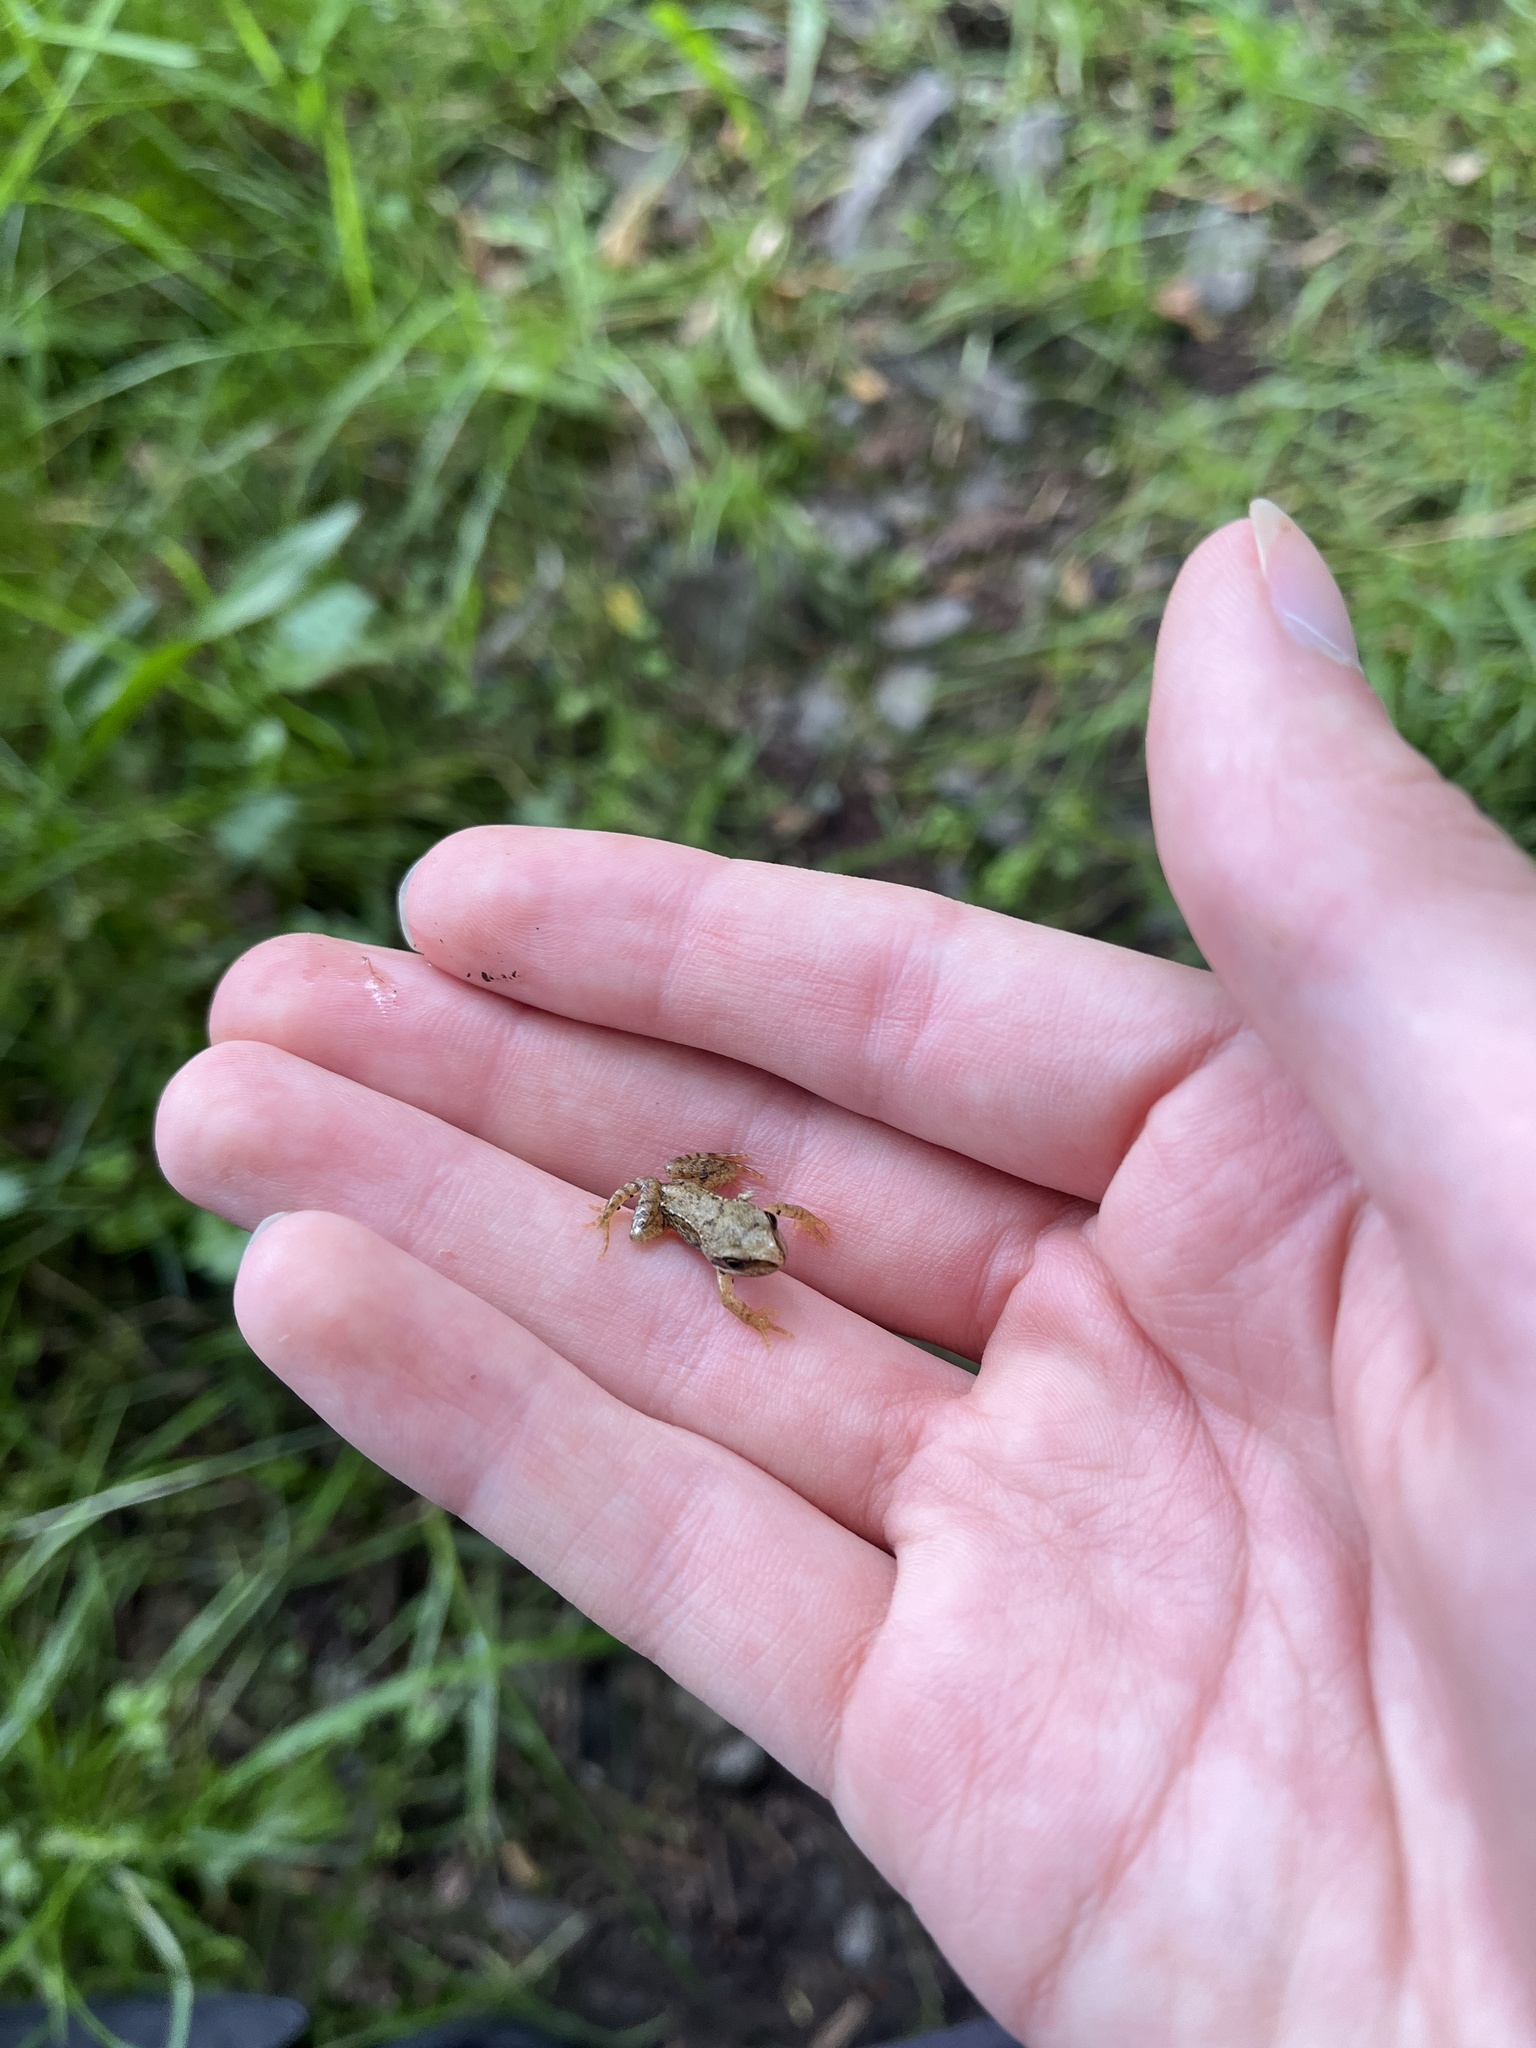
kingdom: Animalia
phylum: Chordata
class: Amphibia
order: Anura
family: Ranidae
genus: Rana
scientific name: Rana temporaria
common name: Common frog
